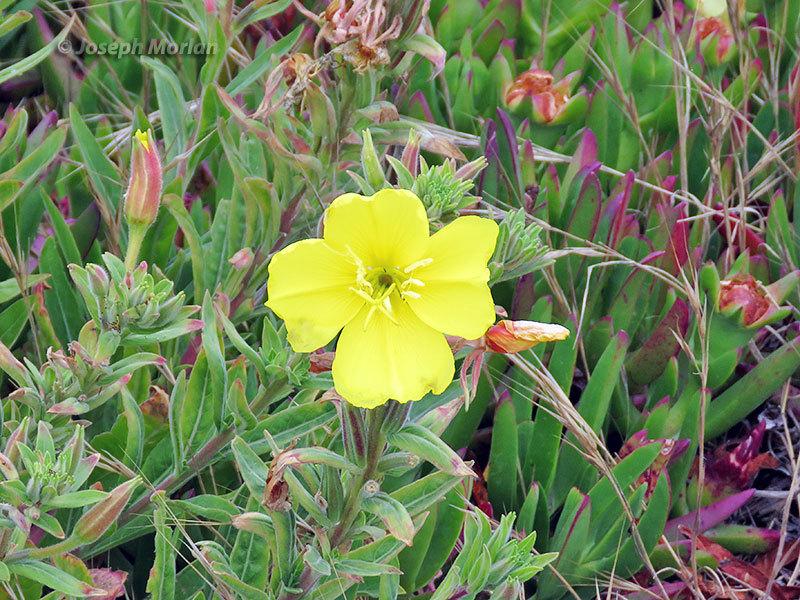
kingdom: Plantae
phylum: Tracheophyta
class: Magnoliopsida
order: Myrtales
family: Onagraceae
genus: Oenothera
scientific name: Oenothera elata
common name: Hooker's evening-primrose
